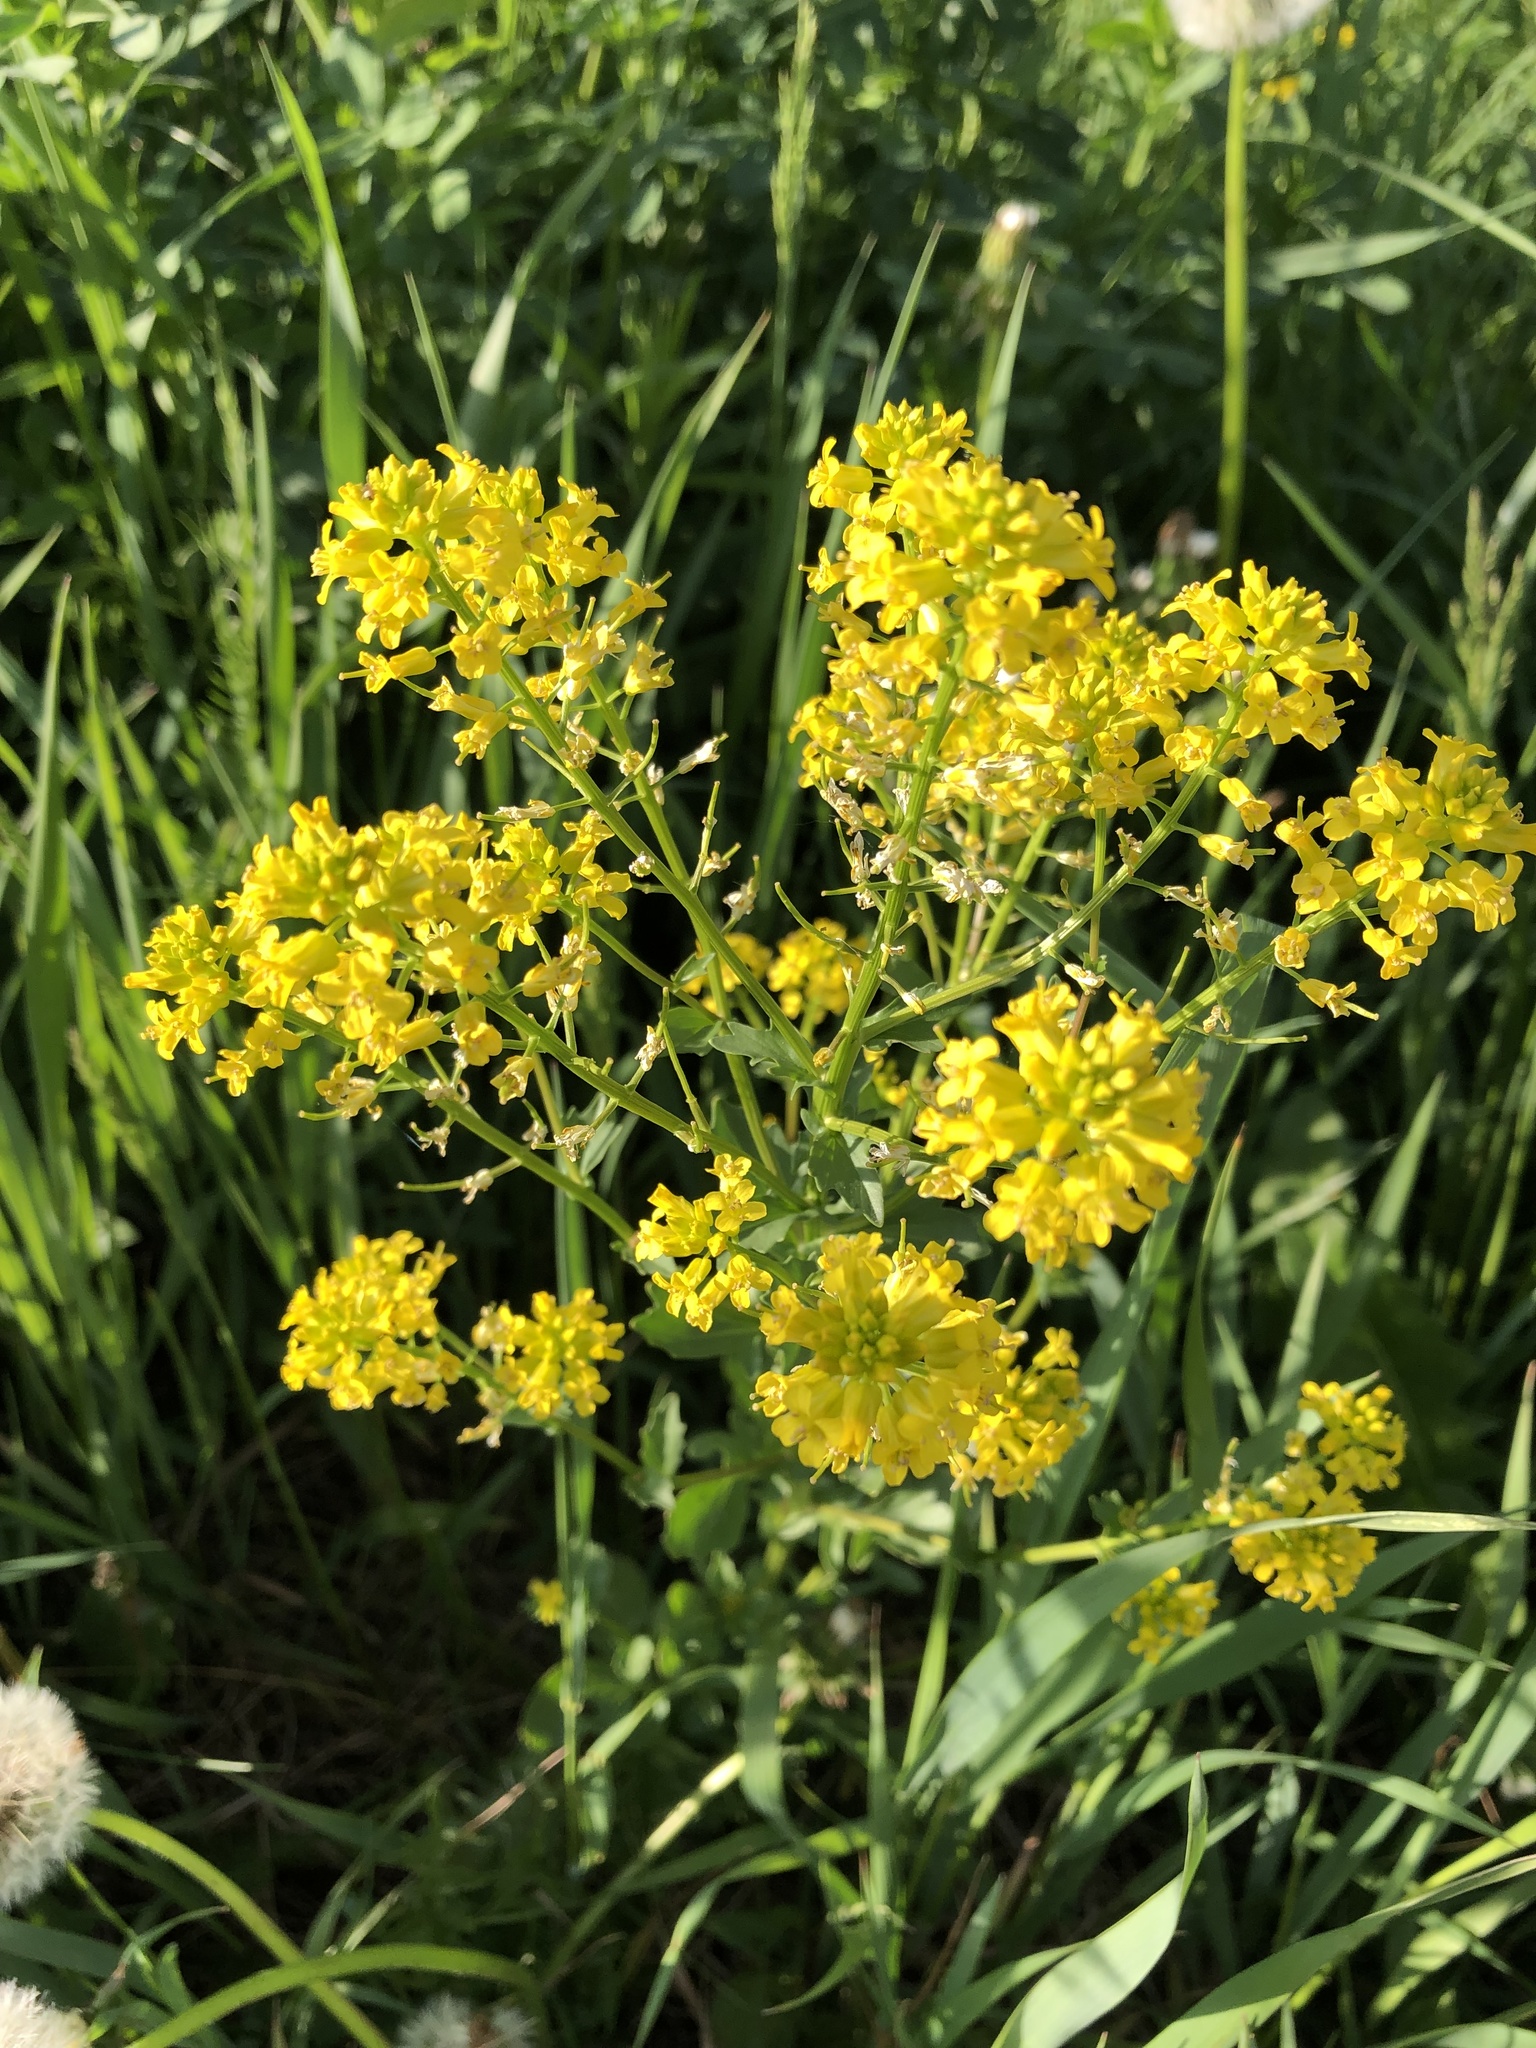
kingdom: Plantae
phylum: Tracheophyta
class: Magnoliopsida
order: Brassicales
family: Brassicaceae
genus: Barbarea
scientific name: Barbarea vulgaris
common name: Cressy-greens
